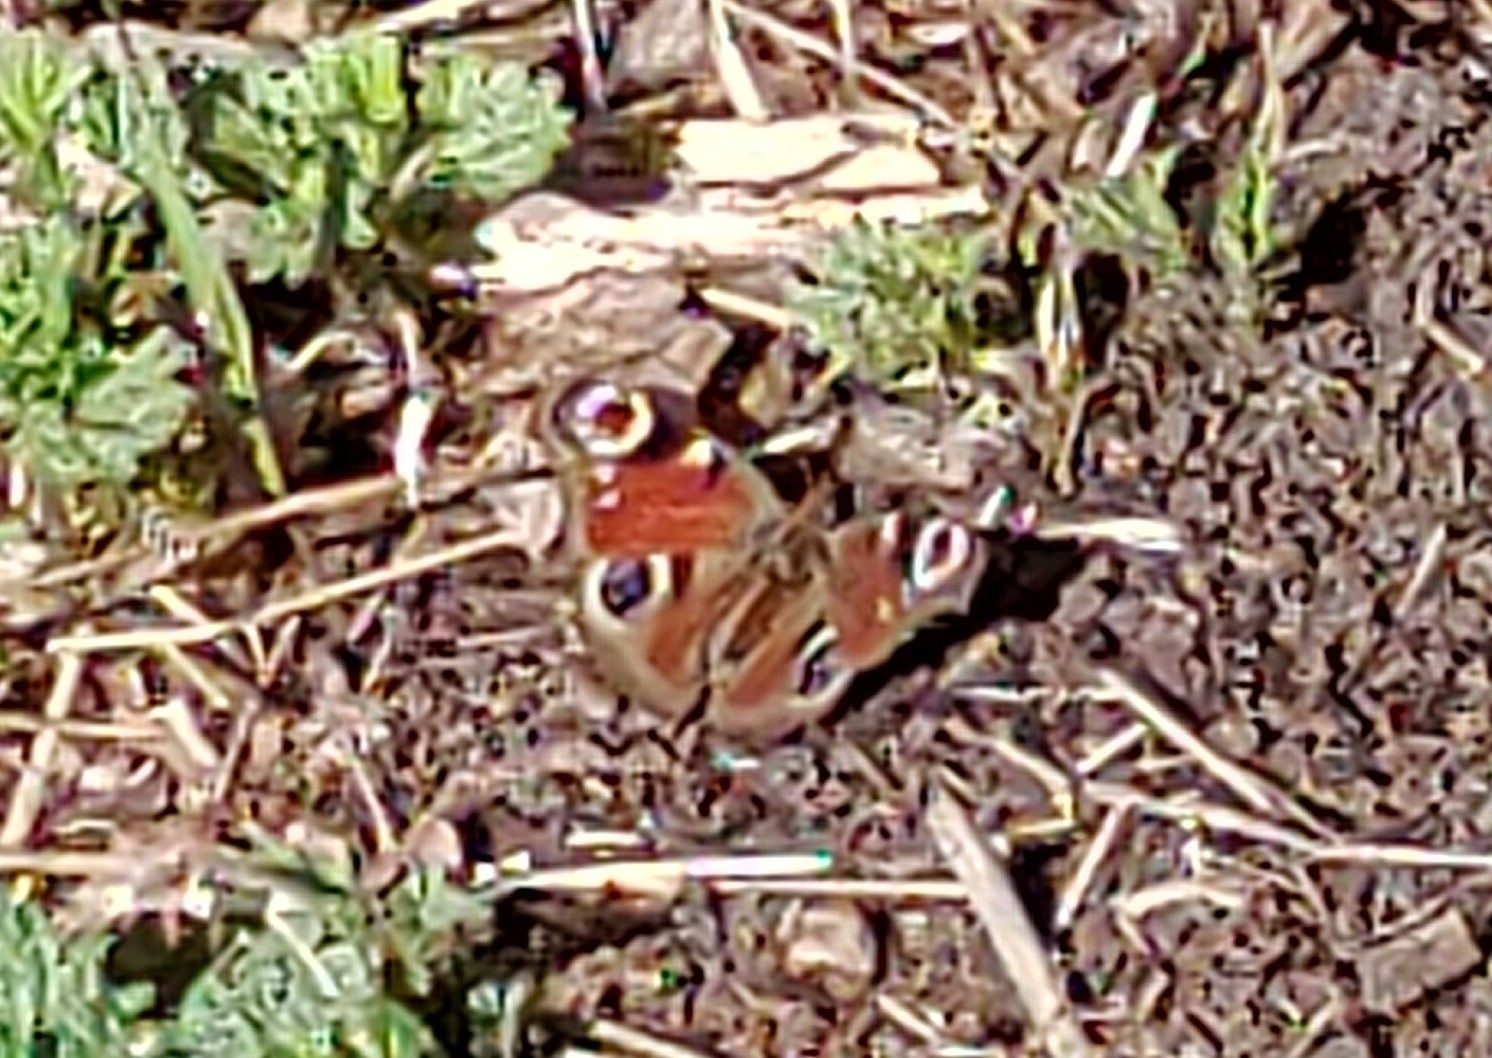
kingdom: Animalia
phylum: Arthropoda
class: Insecta
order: Lepidoptera
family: Nymphalidae
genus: Aglais
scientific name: Aglais io
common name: Peacock
